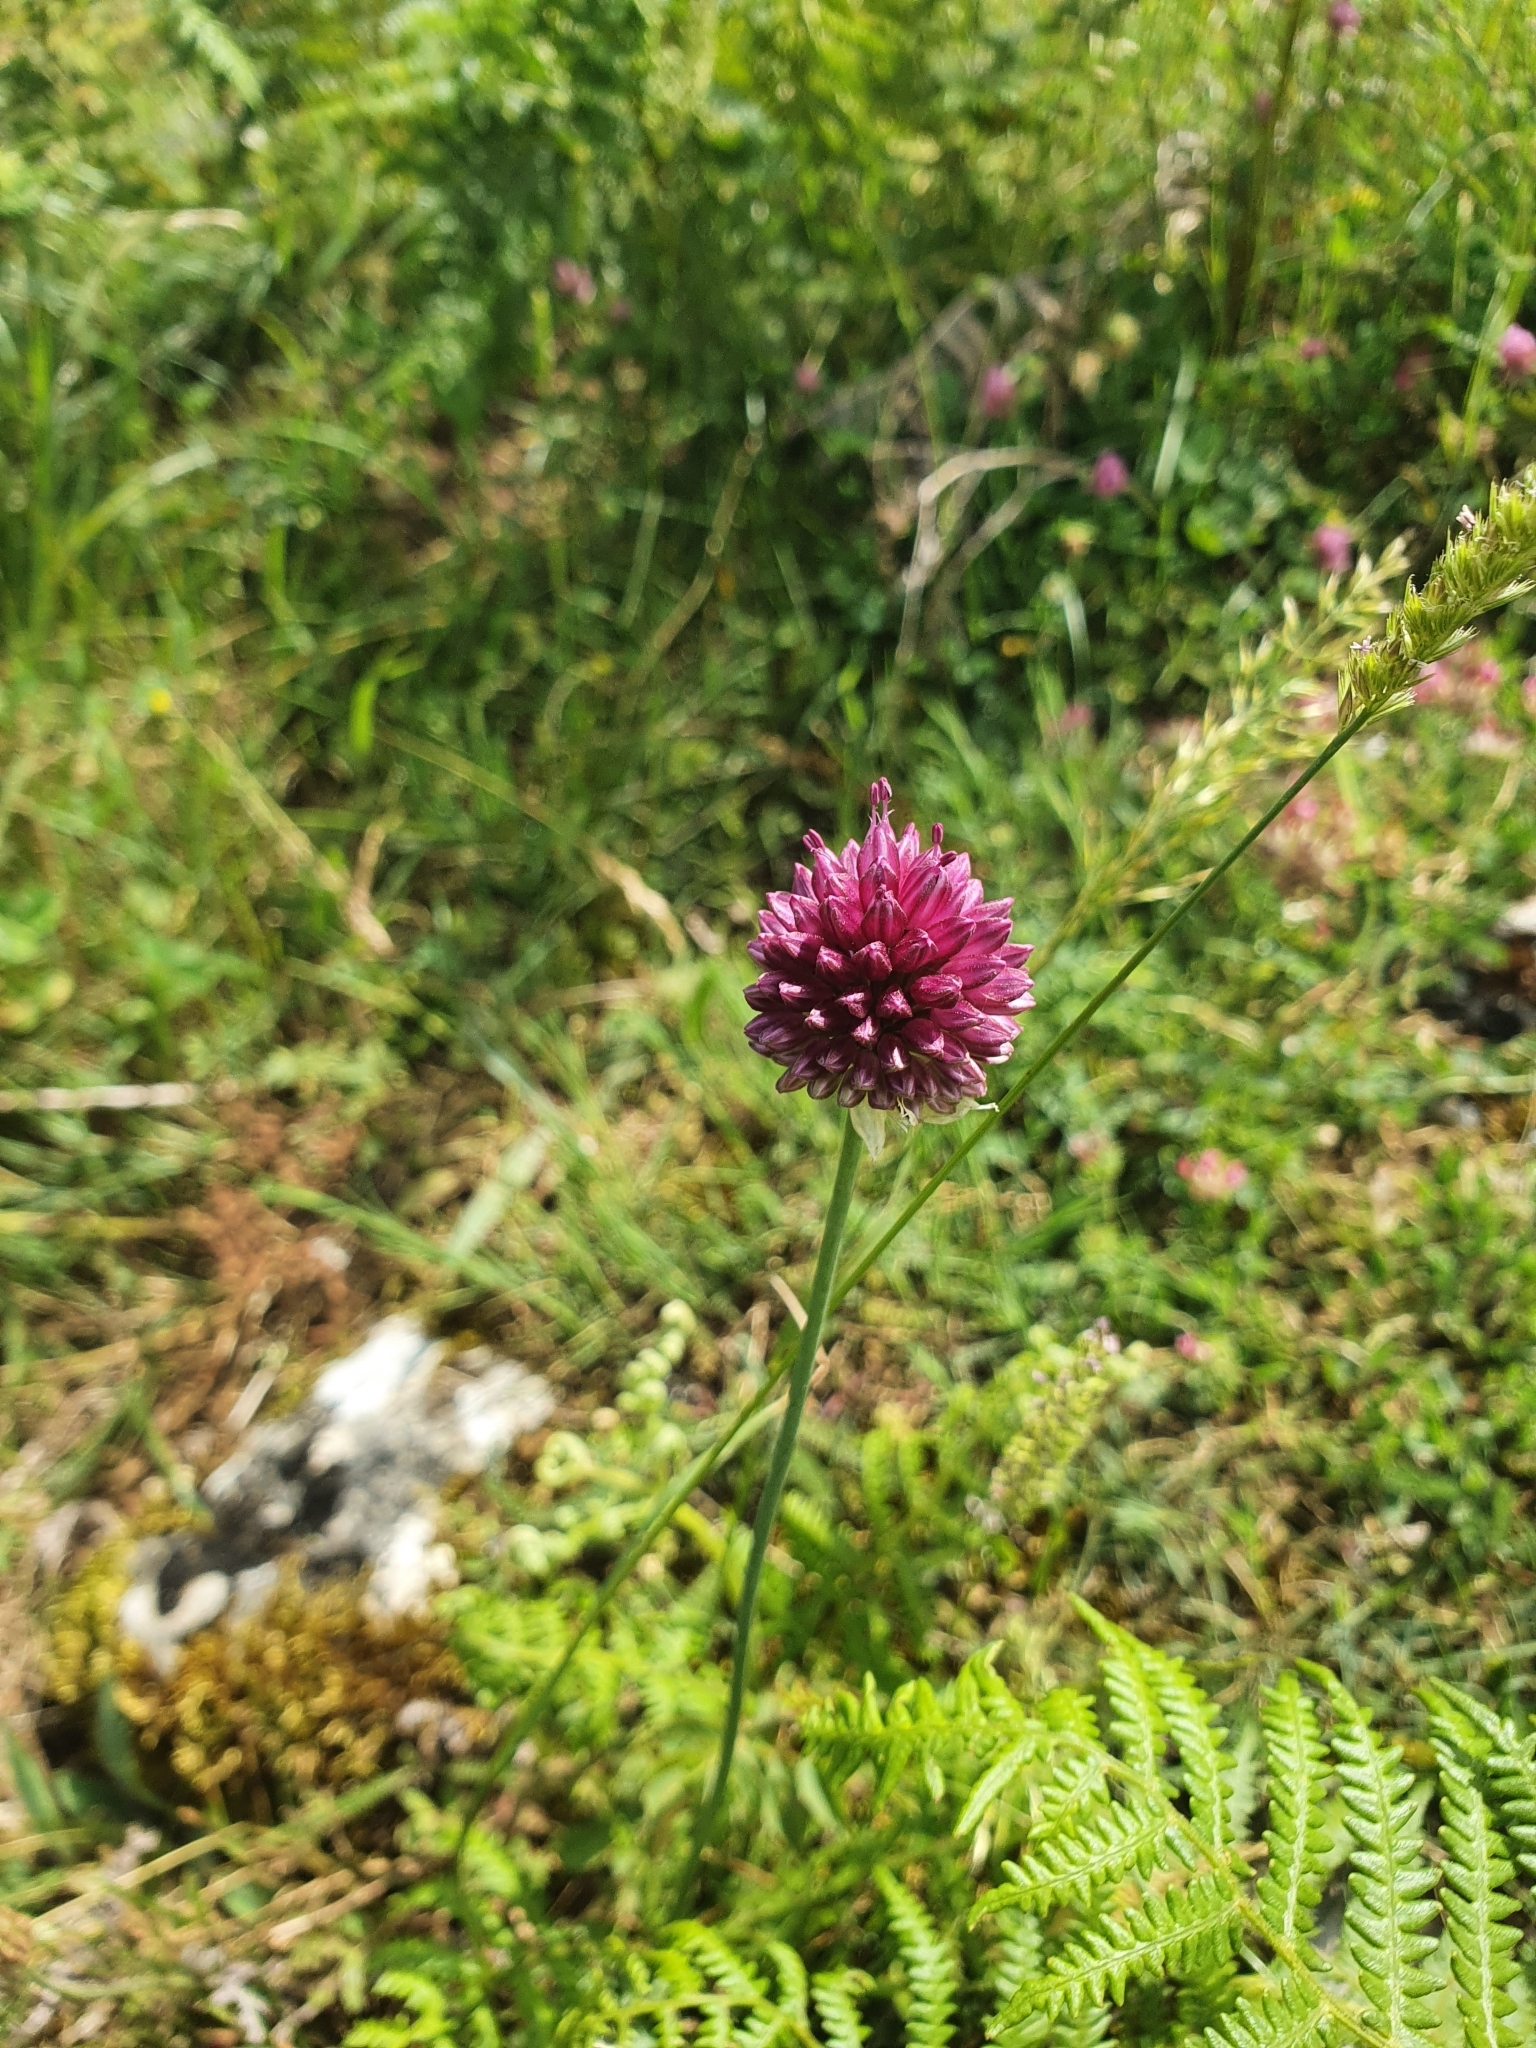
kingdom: Plantae
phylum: Tracheophyta
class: Liliopsida
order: Asparagales
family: Amaryllidaceae
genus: Allium
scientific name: Allium sphaerocephalon
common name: Round-headed leek
